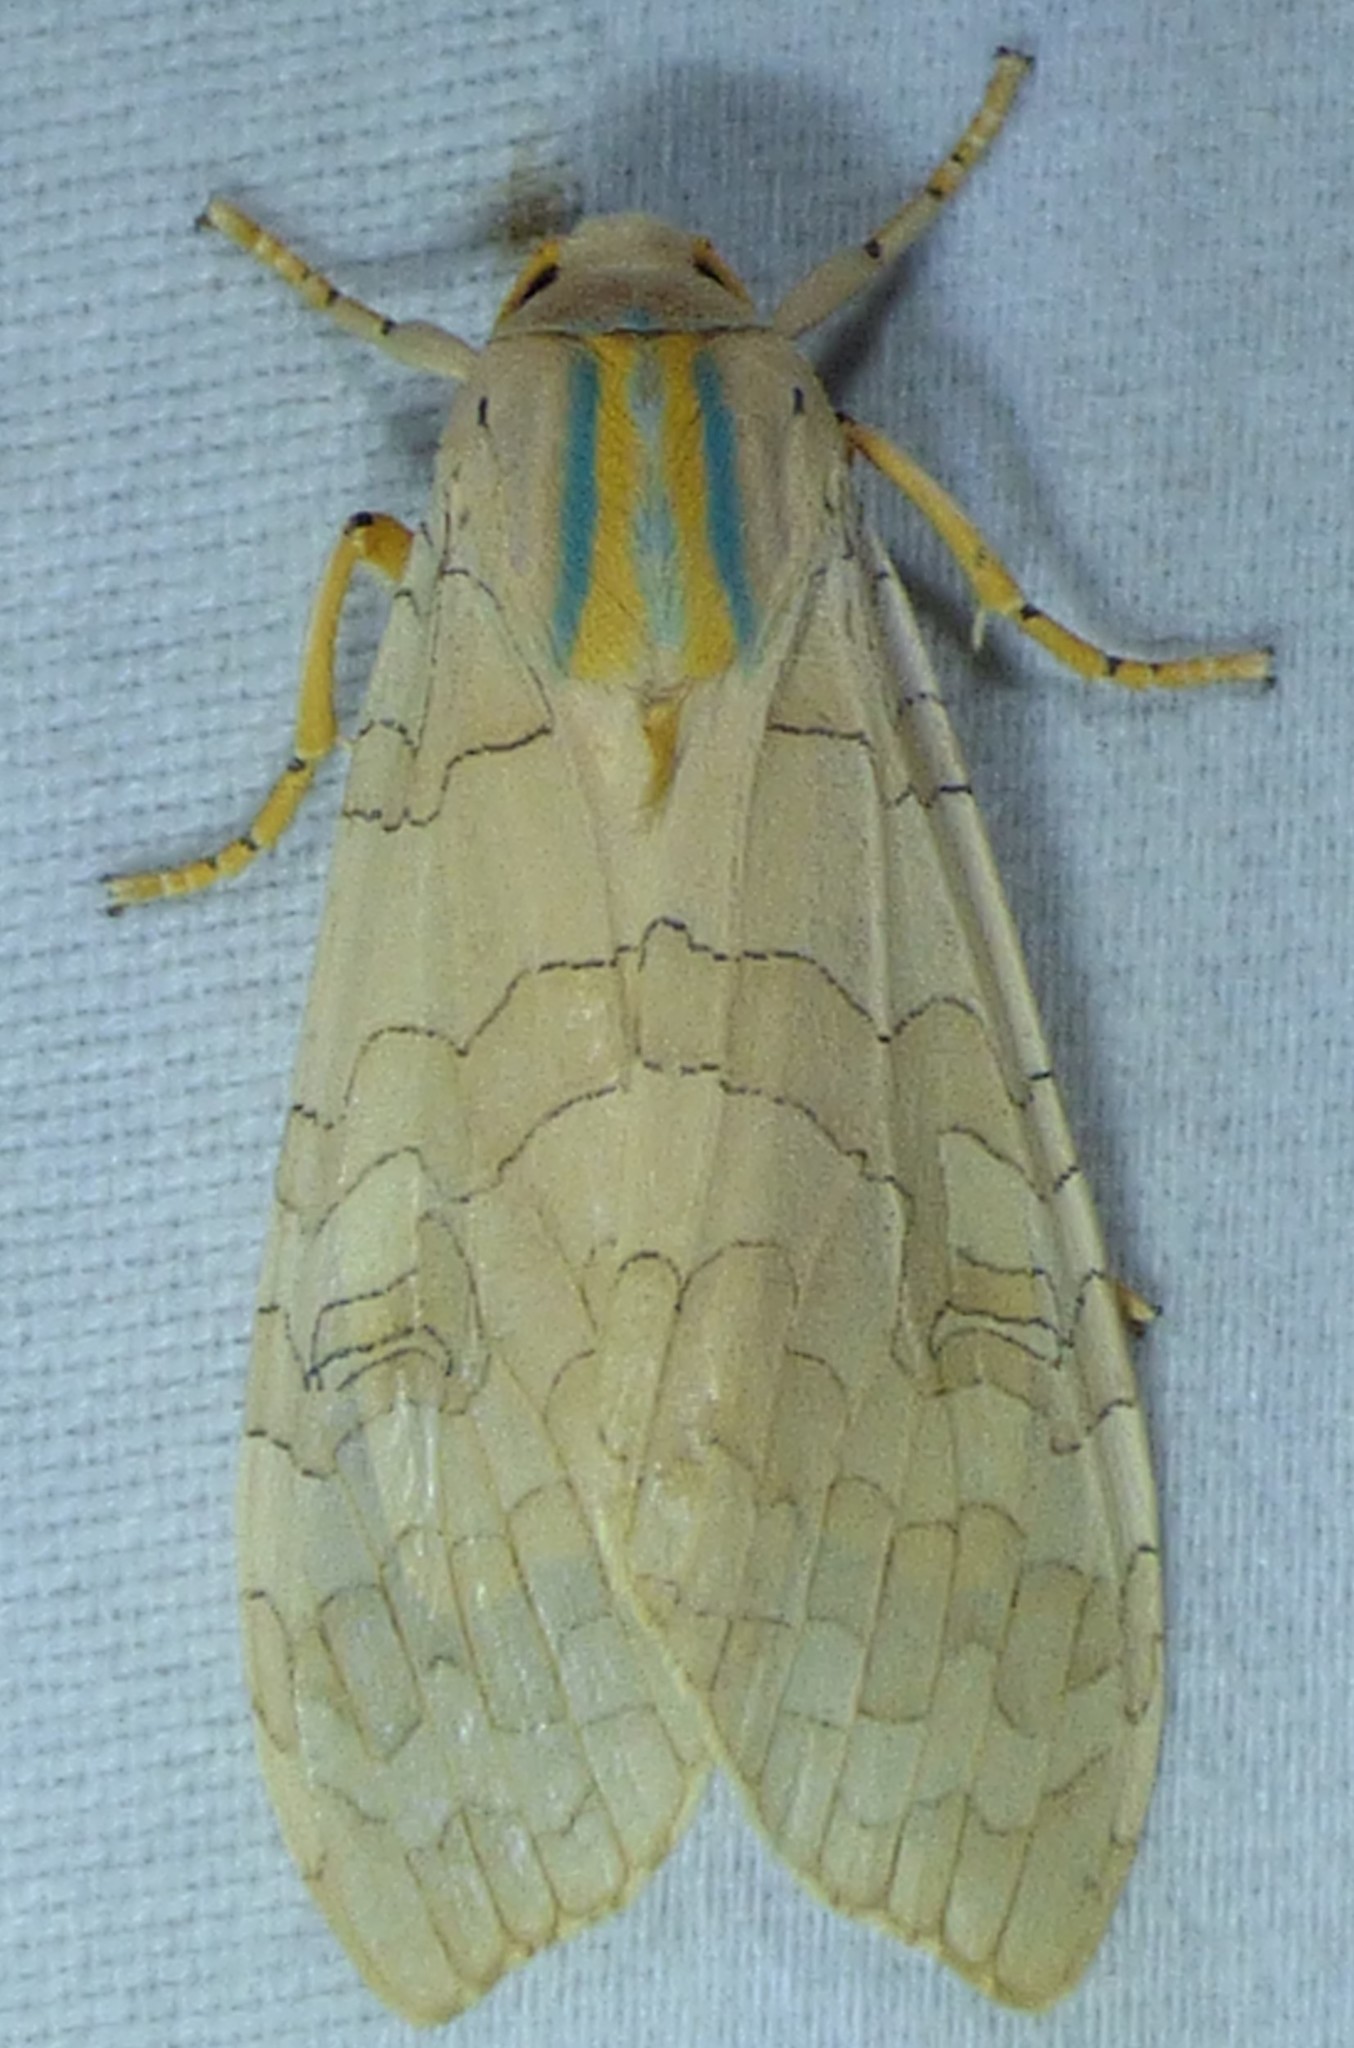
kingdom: Animalia
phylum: Arthropoda
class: Insecta
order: Lepidoptera
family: Erebidae
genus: Halysidota
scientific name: Halysidota
